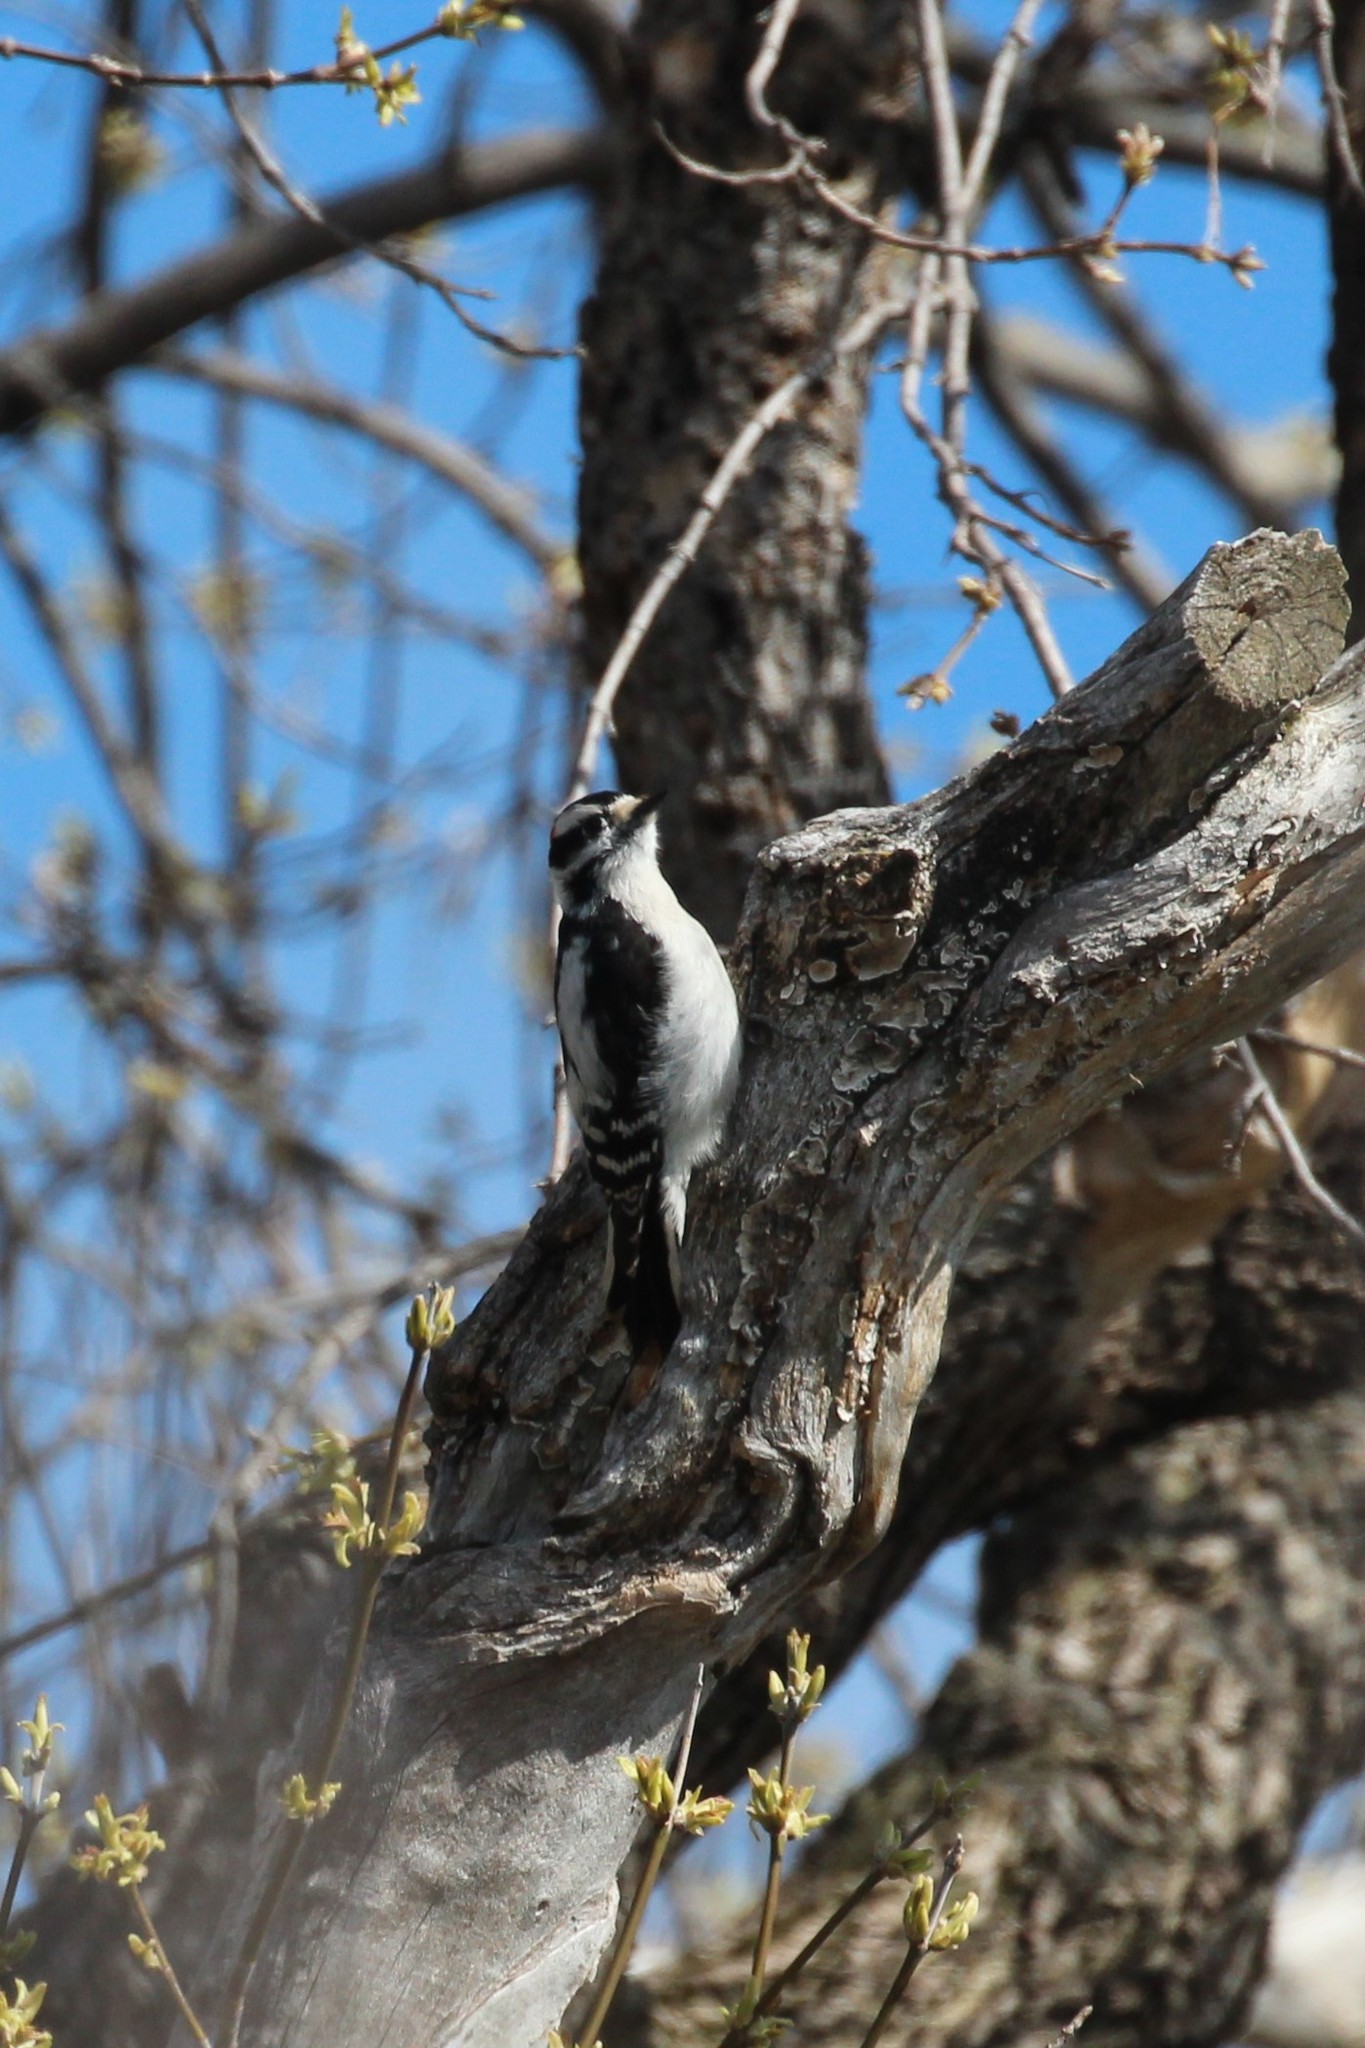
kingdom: Animalia
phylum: Chordata
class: Aves
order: Piciformes
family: Picidae
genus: Dryobates
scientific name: Dryobates pubescens
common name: Downy woodpecker
